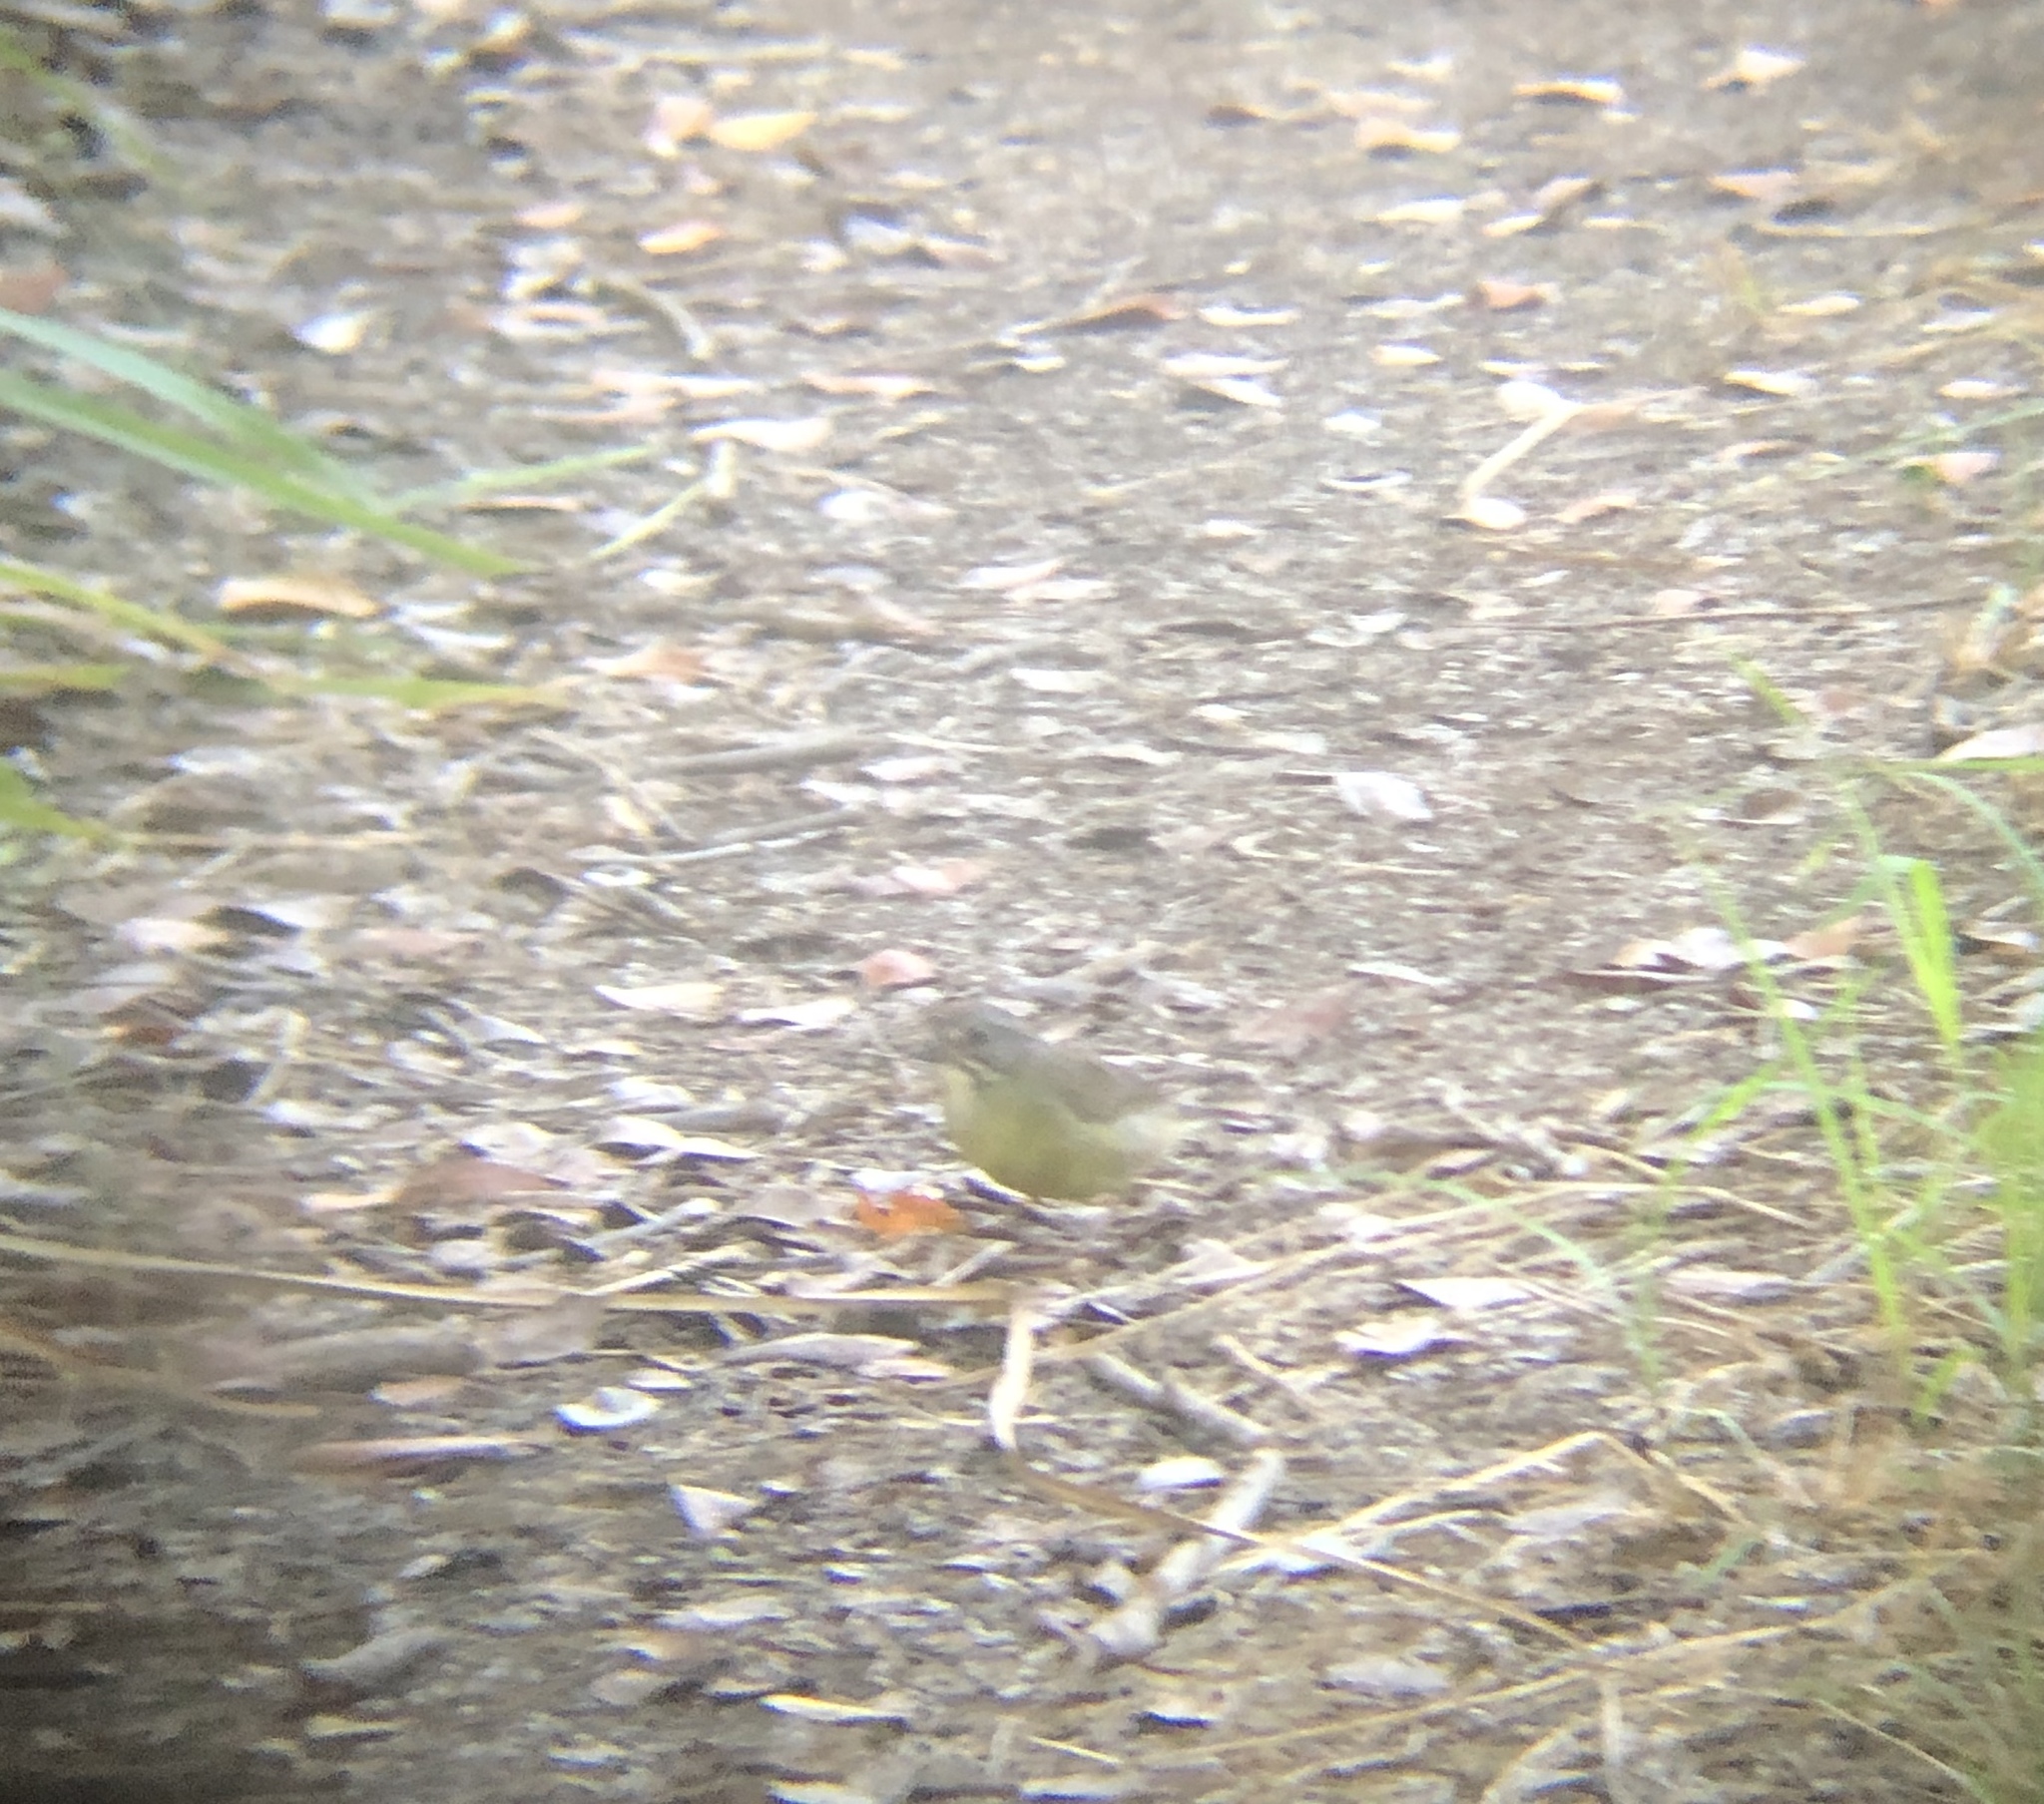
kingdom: Animalia
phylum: Chordata
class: Aves
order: Passeriformes
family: Passerellidae
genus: Torreornis
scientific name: Torreornis inexpectata
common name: Zapata sparrow
